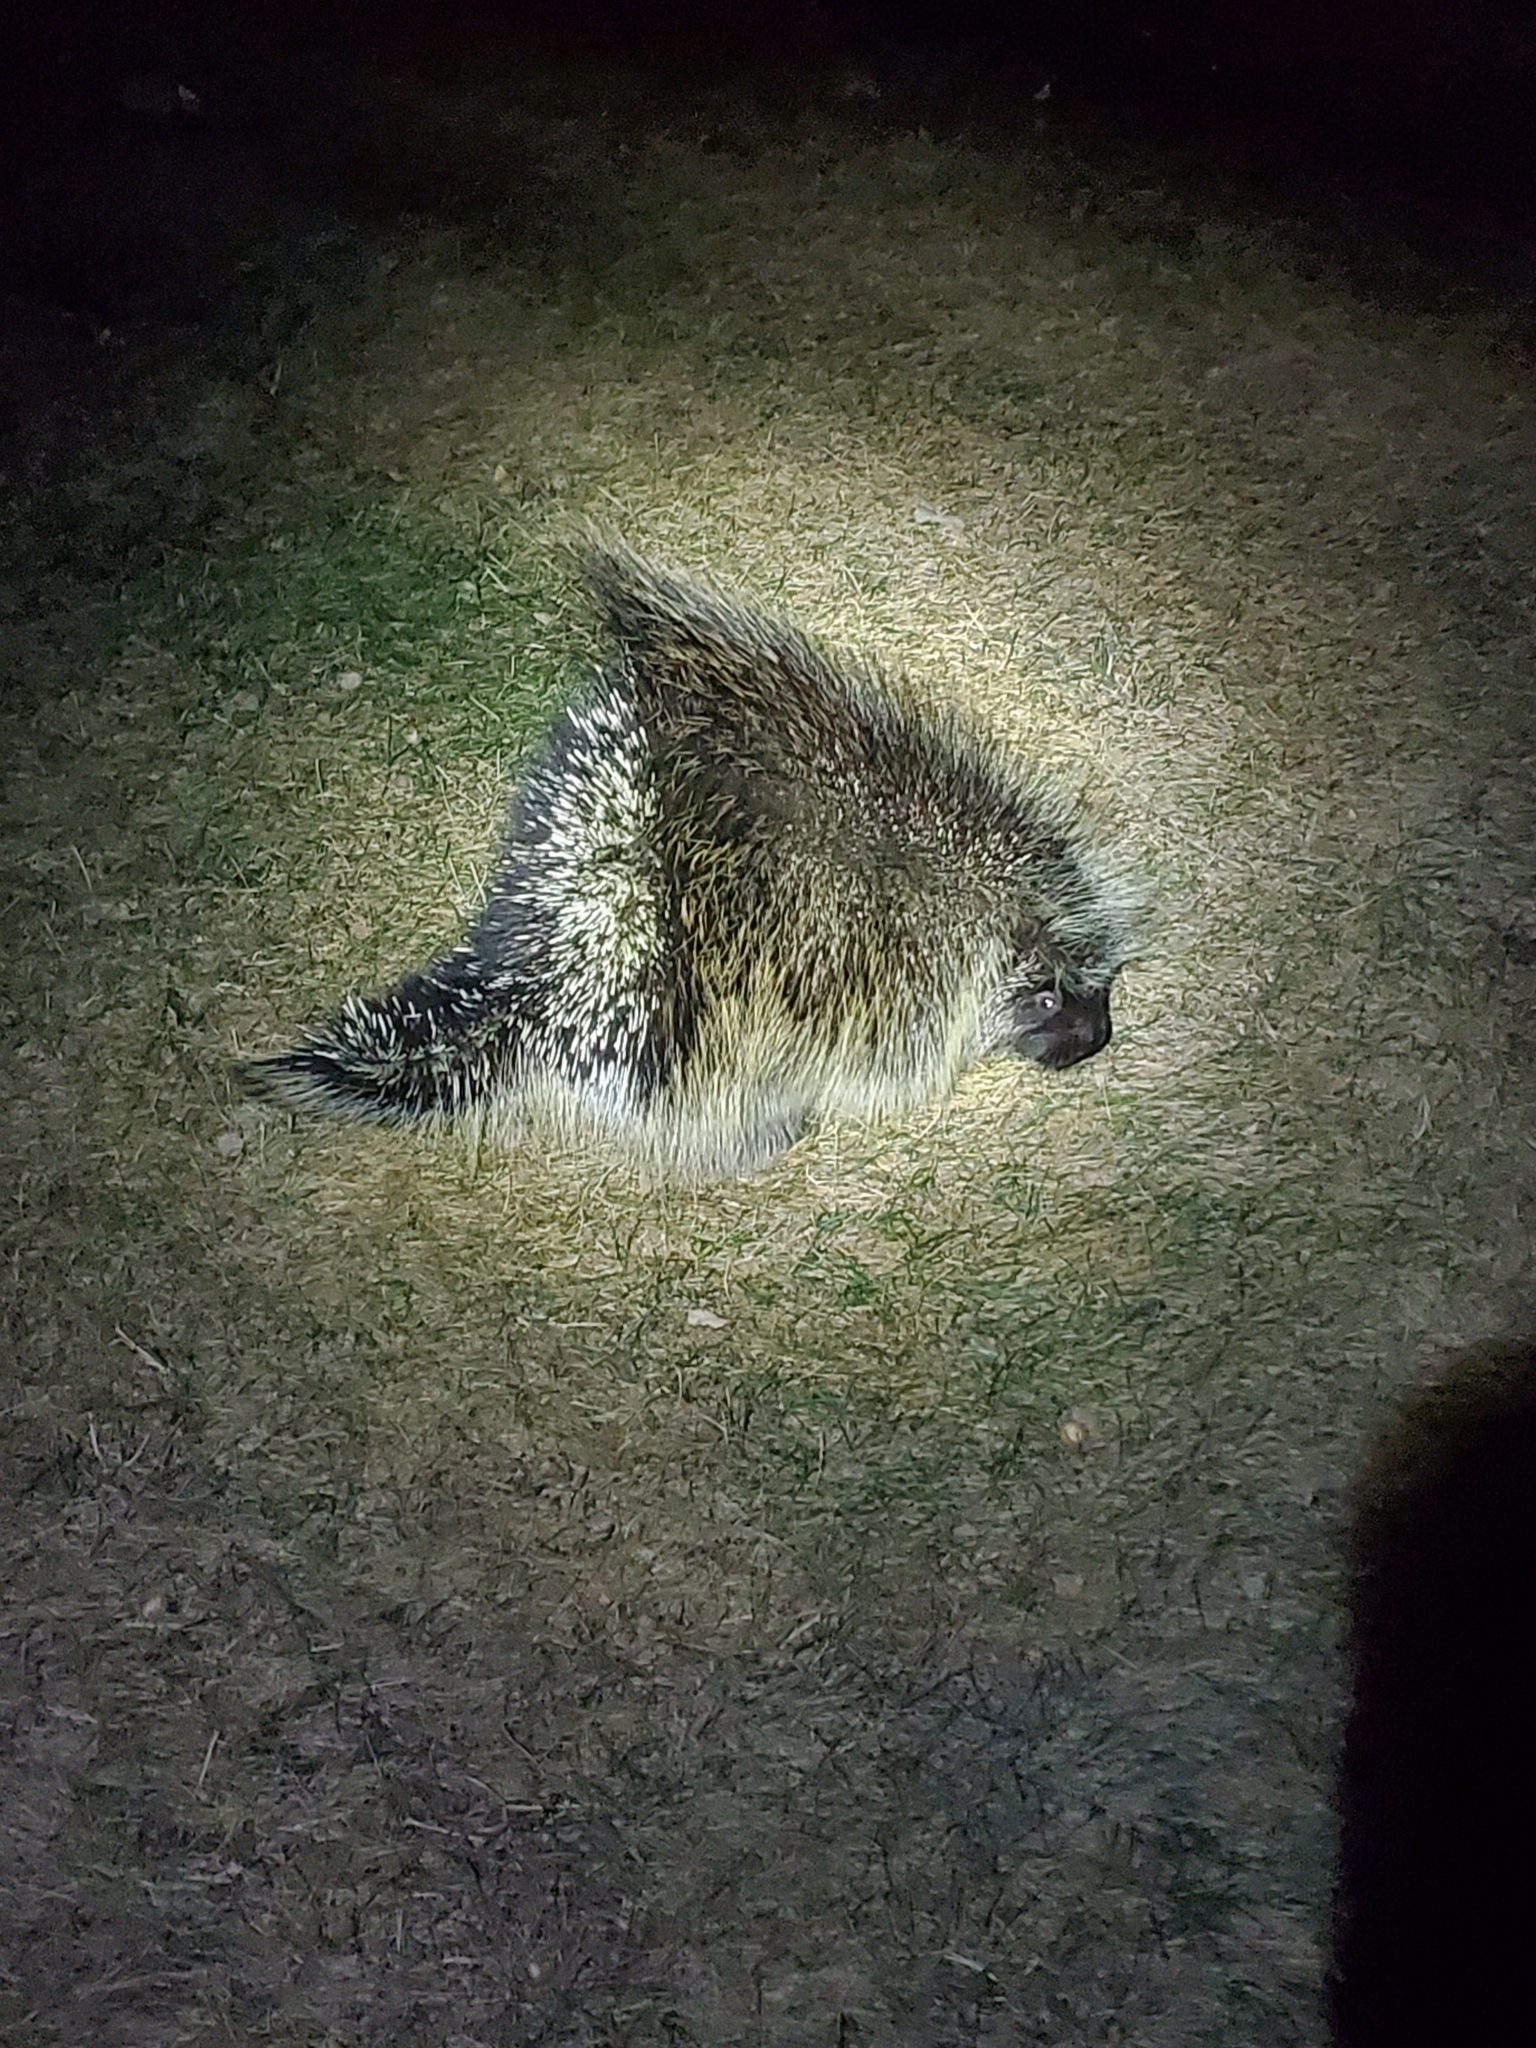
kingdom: Animalia
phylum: Chordata
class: Mammalia
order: Rodentia
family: Erethizontidae
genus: Erethizon
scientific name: Erethizon dorsatus
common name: North american porcupine
